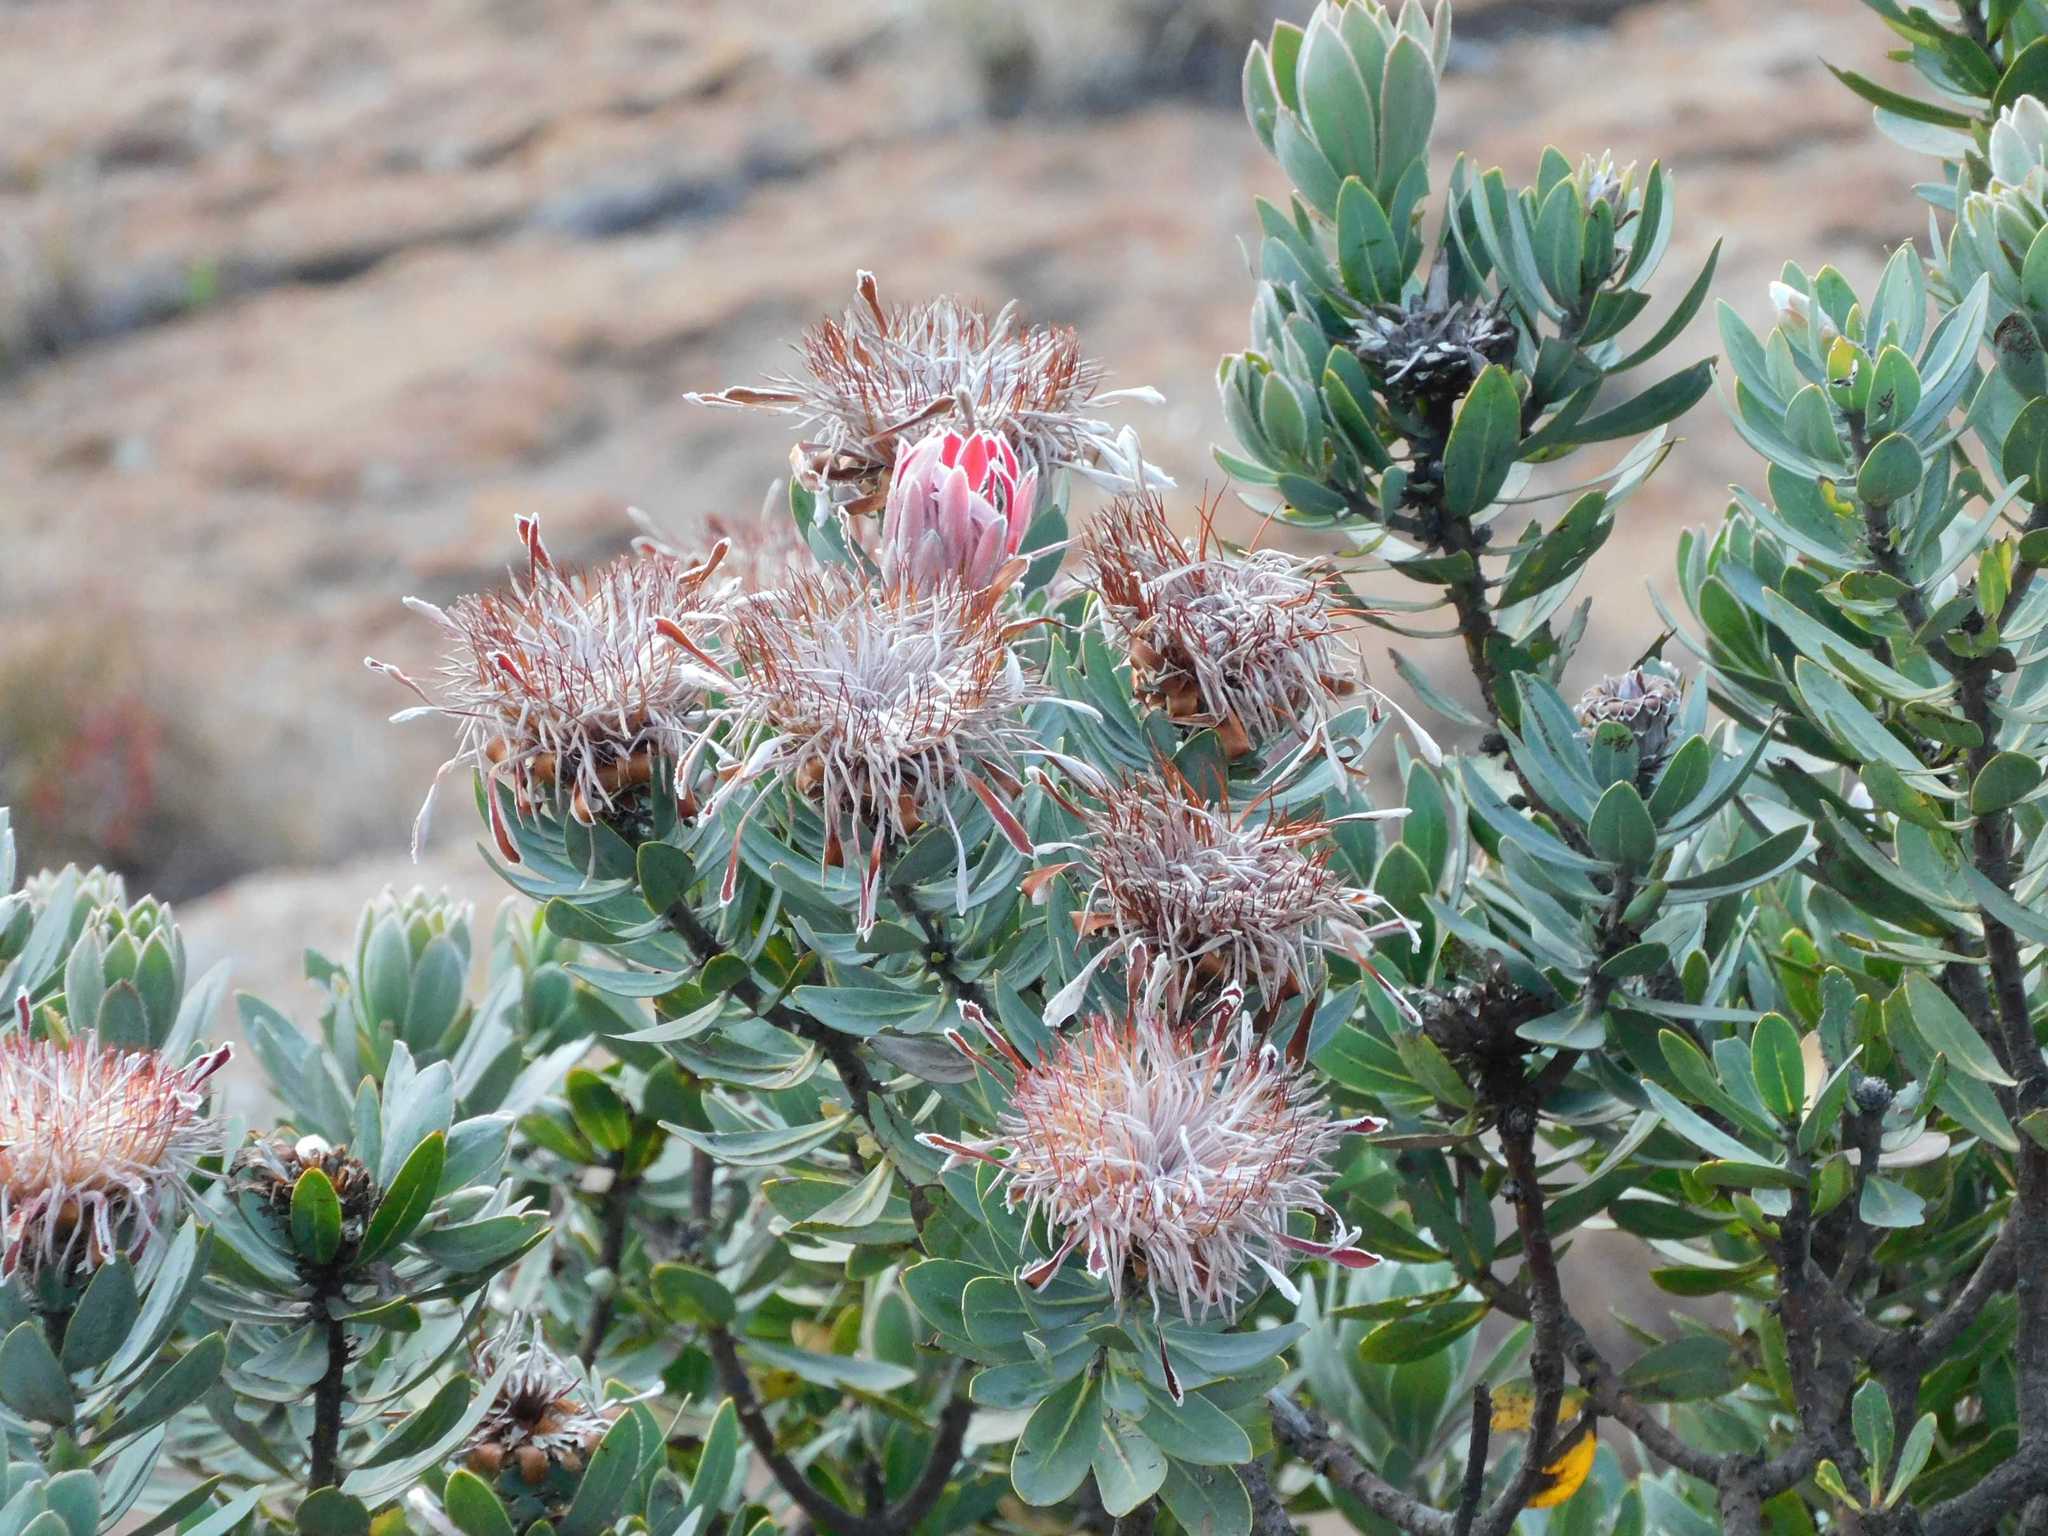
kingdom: Plantae
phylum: Tracheophyta
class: Magnoliopsida
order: Proteales
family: Proteaceae
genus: Protea
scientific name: Protea roupelliae
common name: Silver sugarbush
